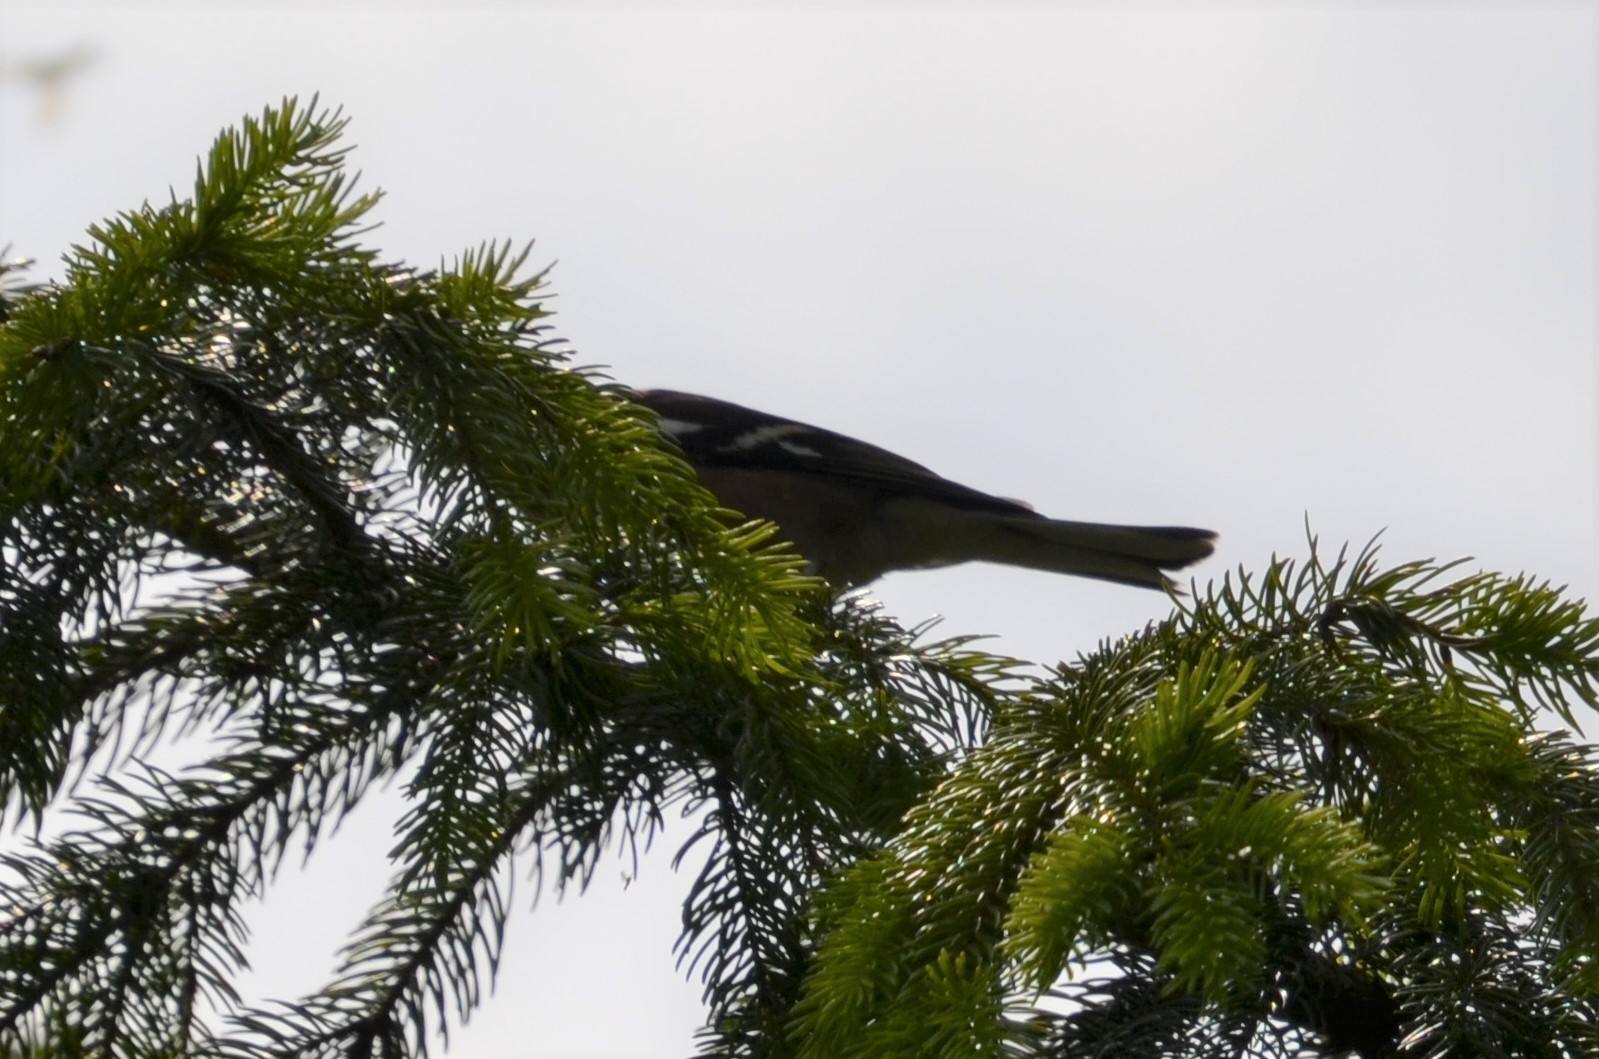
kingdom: Animalia
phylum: Chordata
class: Aves
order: Passeriformes
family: Fringillidae
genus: Fringilla
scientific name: Fringilla coelebs
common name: Common chaffinch
